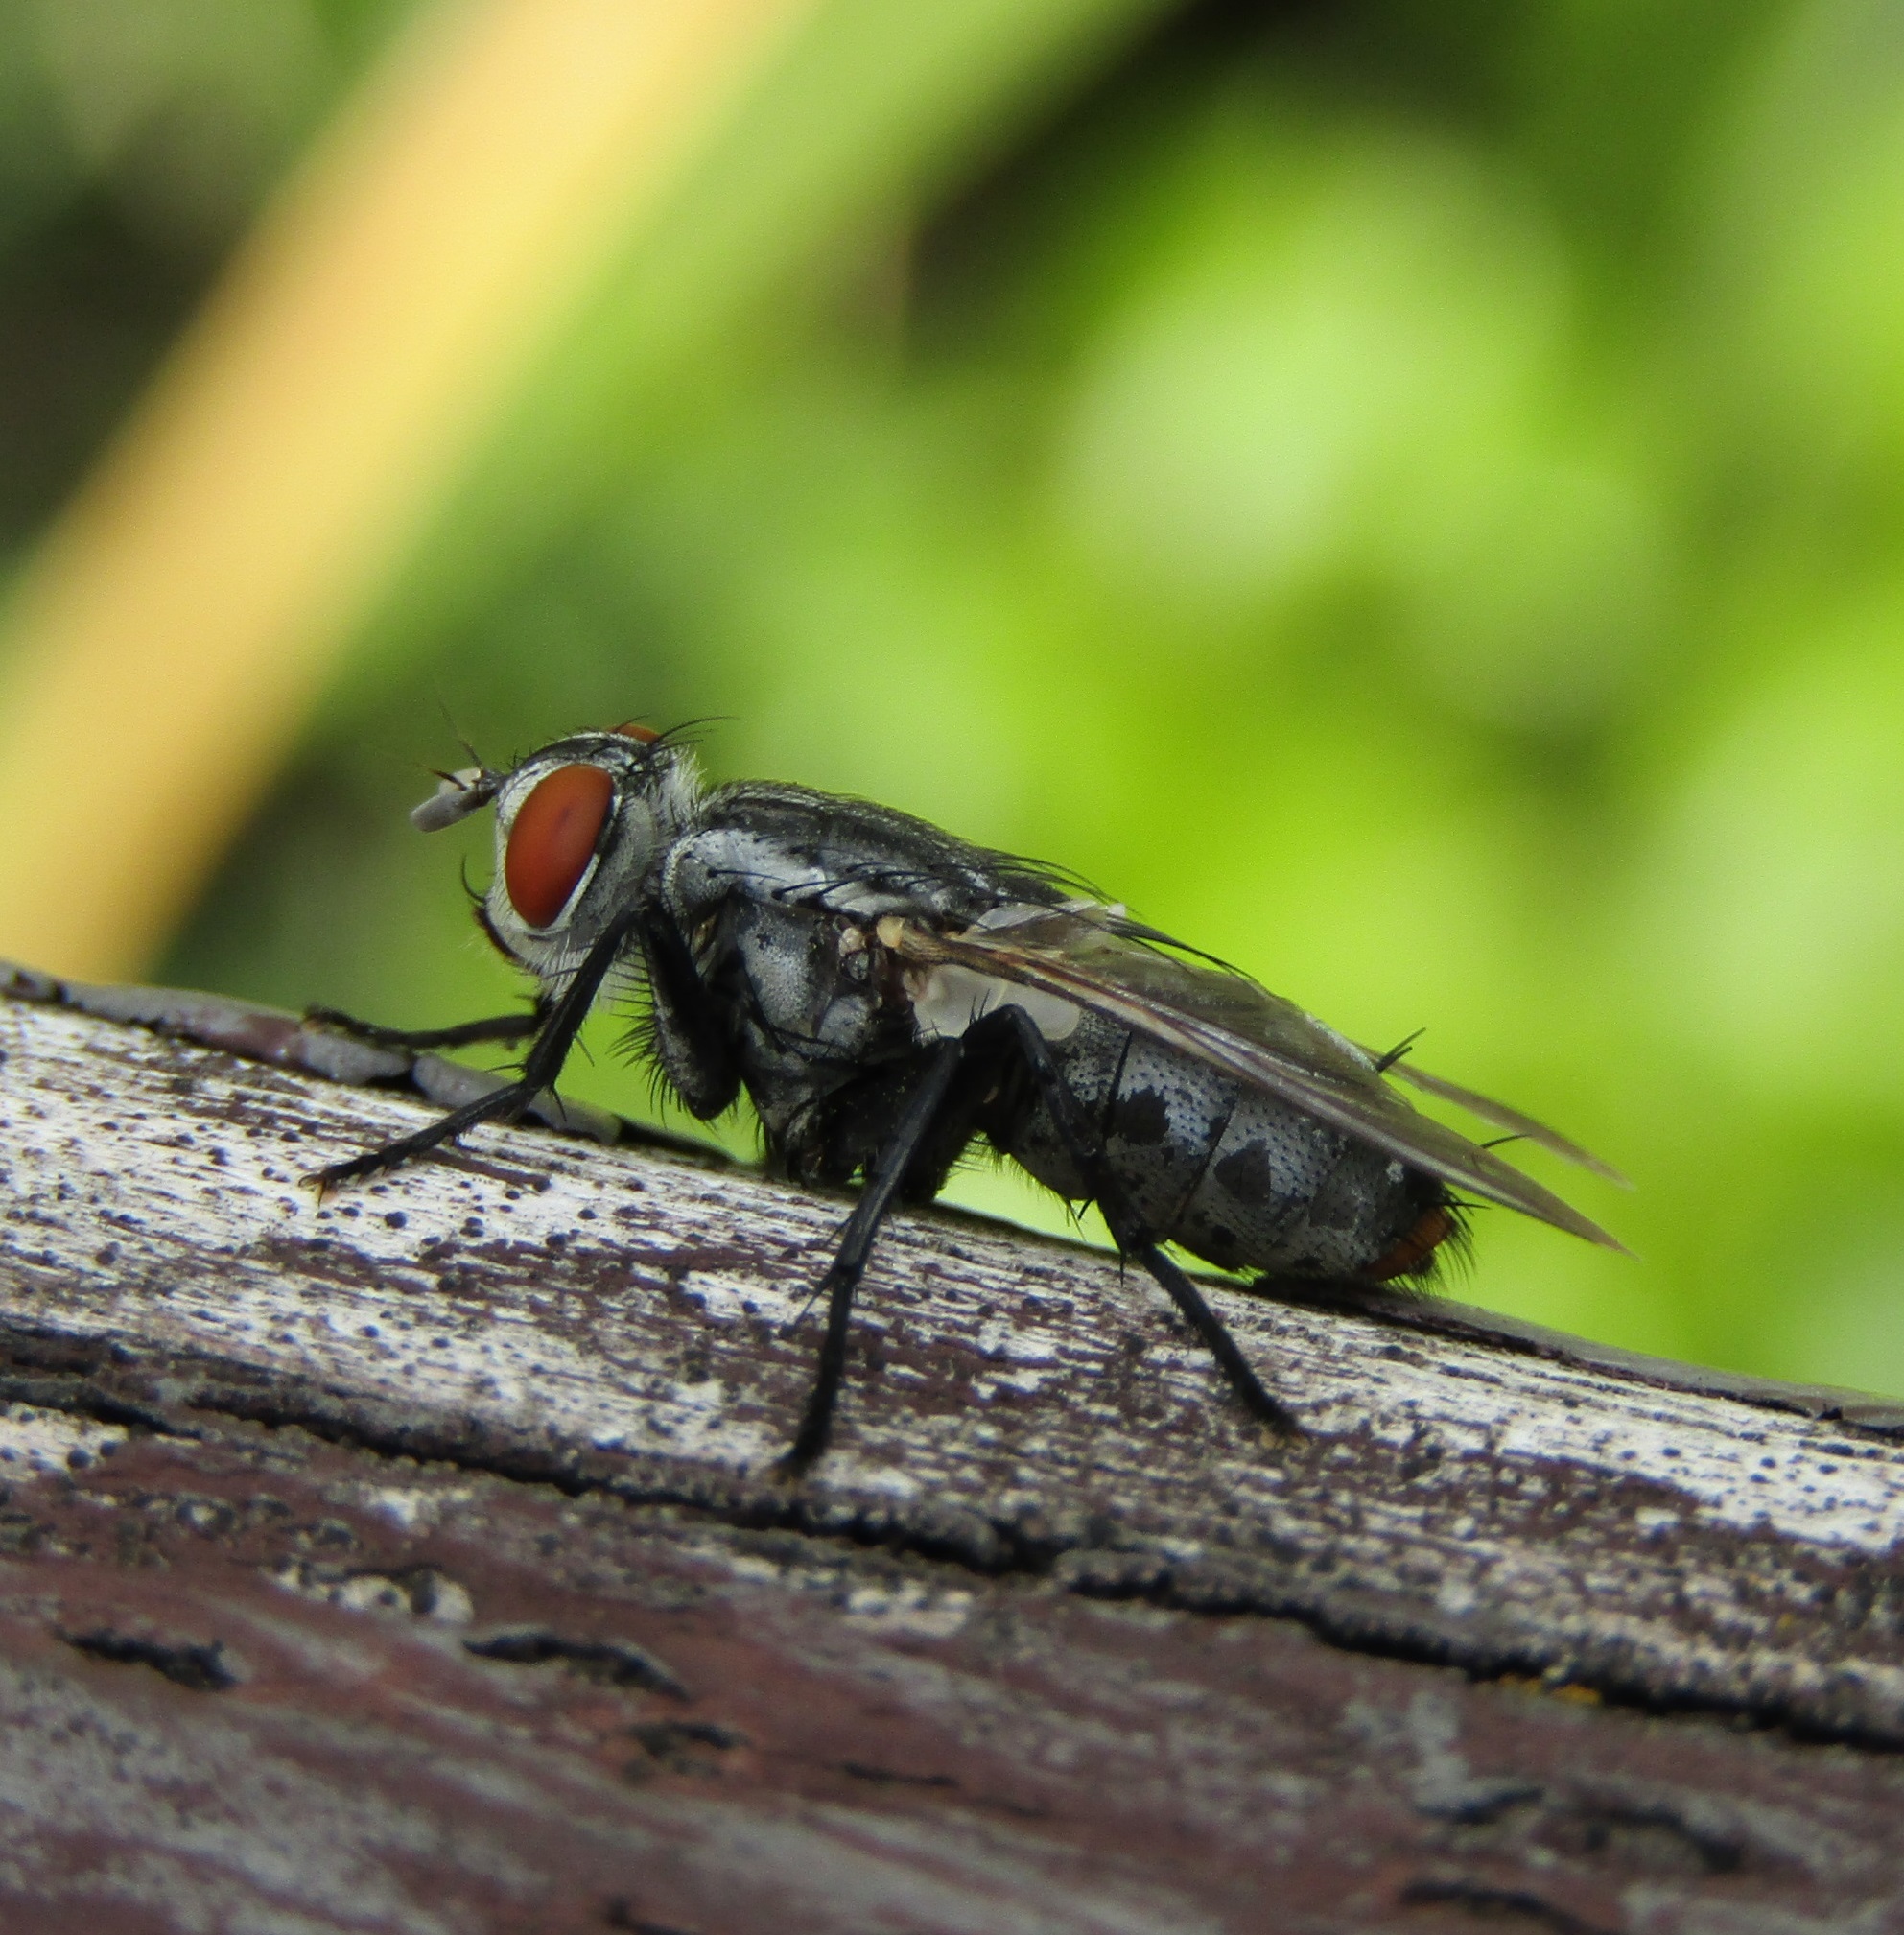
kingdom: Animalia
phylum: Arthropoda
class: Insecta
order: Diptera
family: Sarcophagidae
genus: Sarcophaga
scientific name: Sarcophaga crassipalpis
